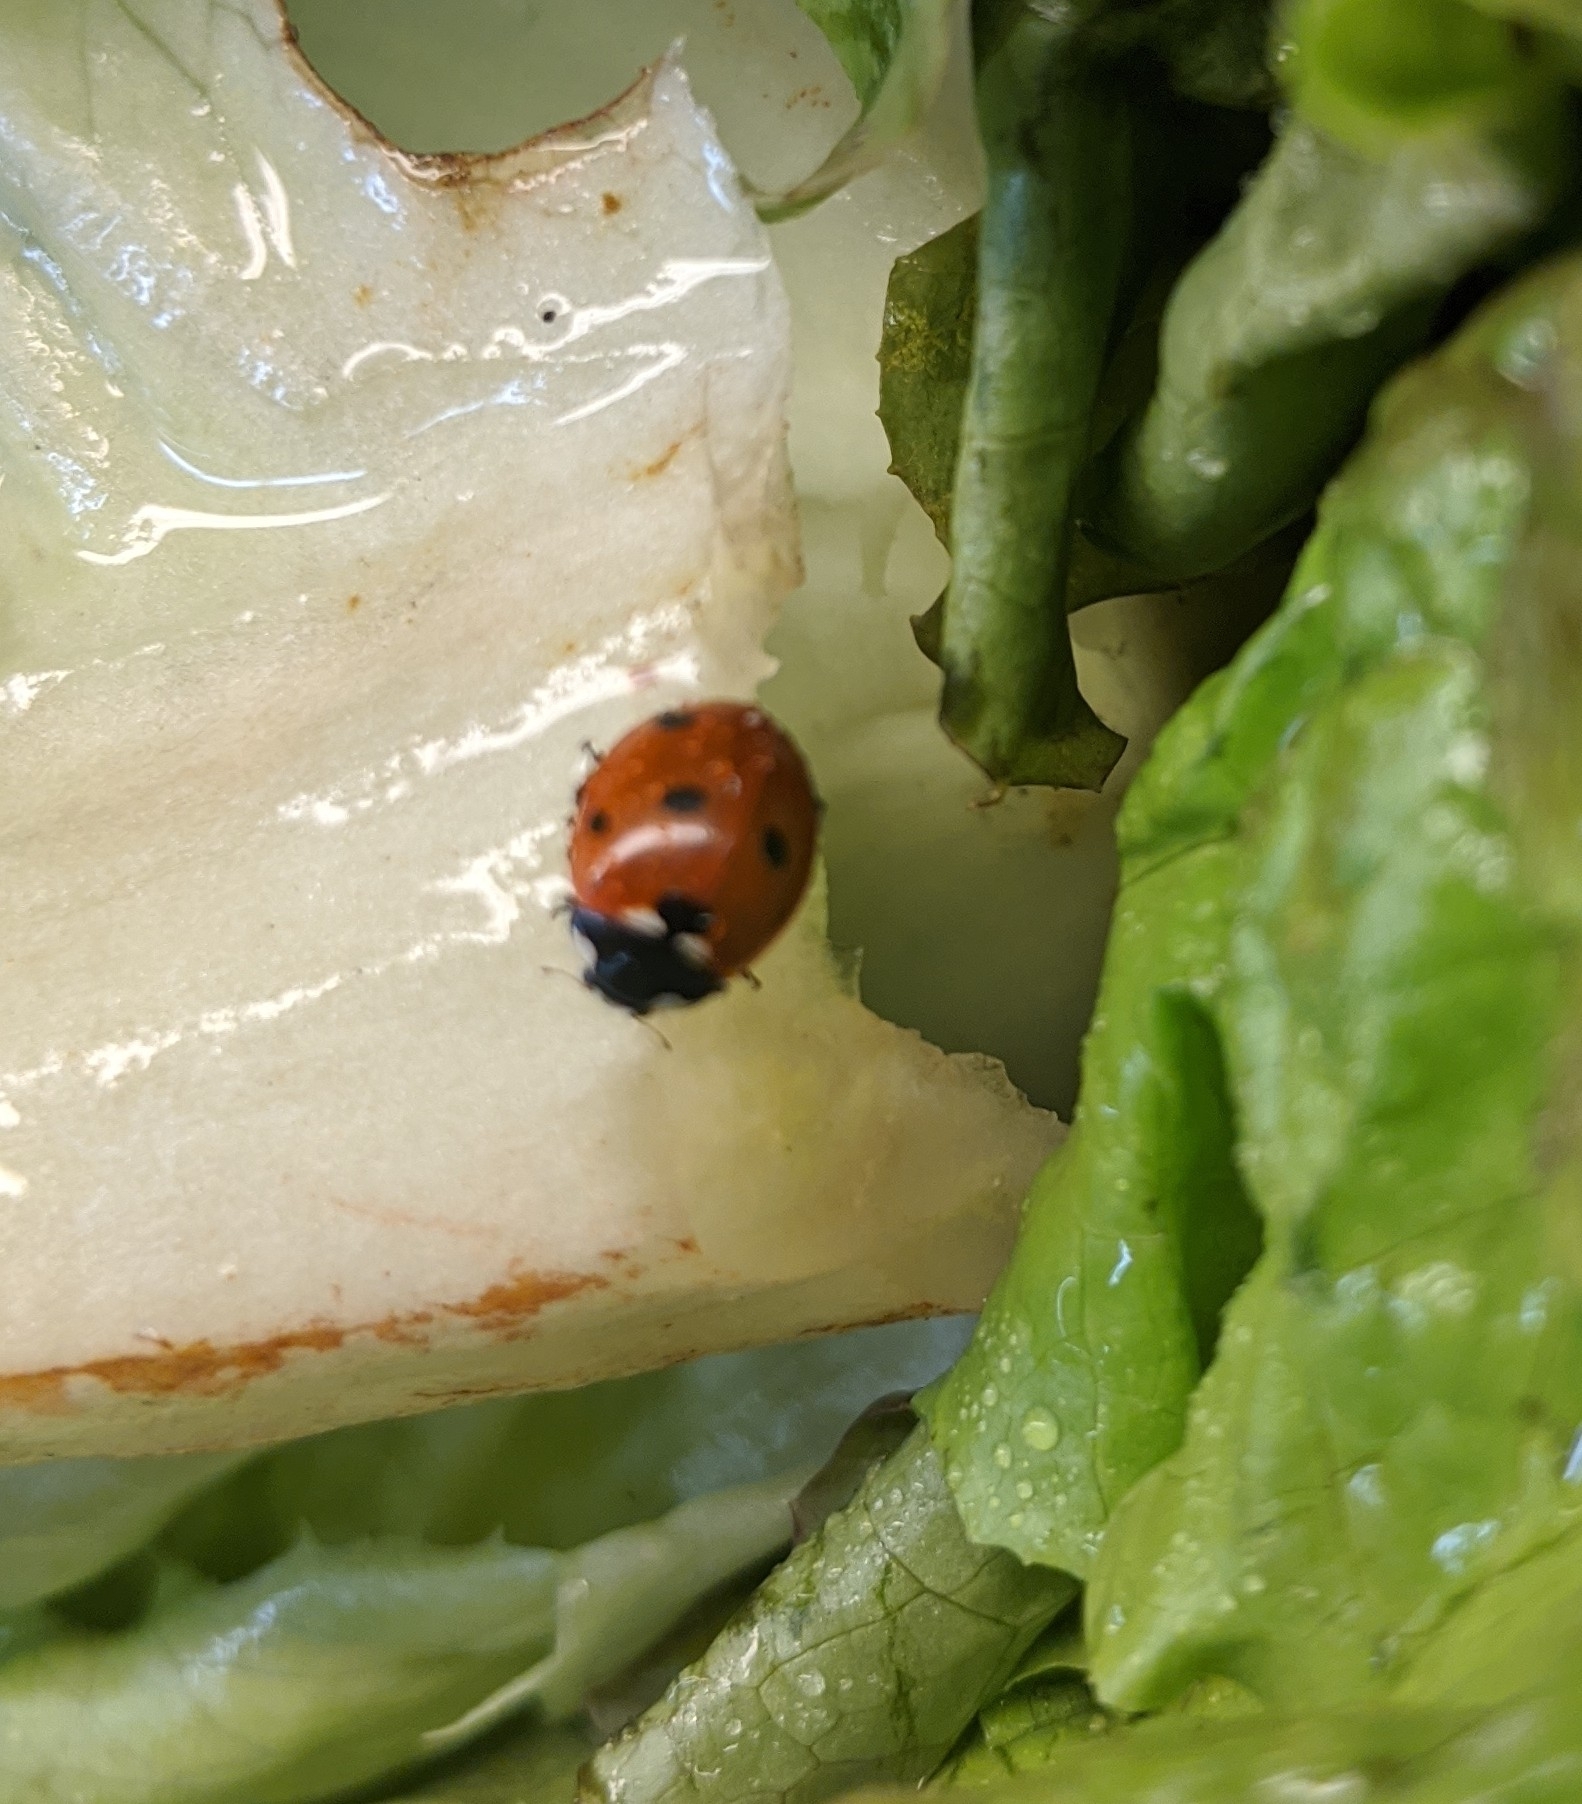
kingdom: Animalia
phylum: Arthropoda
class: Insecta
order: Coleoptera
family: Coccinellidae
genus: Coccinella
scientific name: Coccinella septempunctata
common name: Sevenspotted lady beetle
